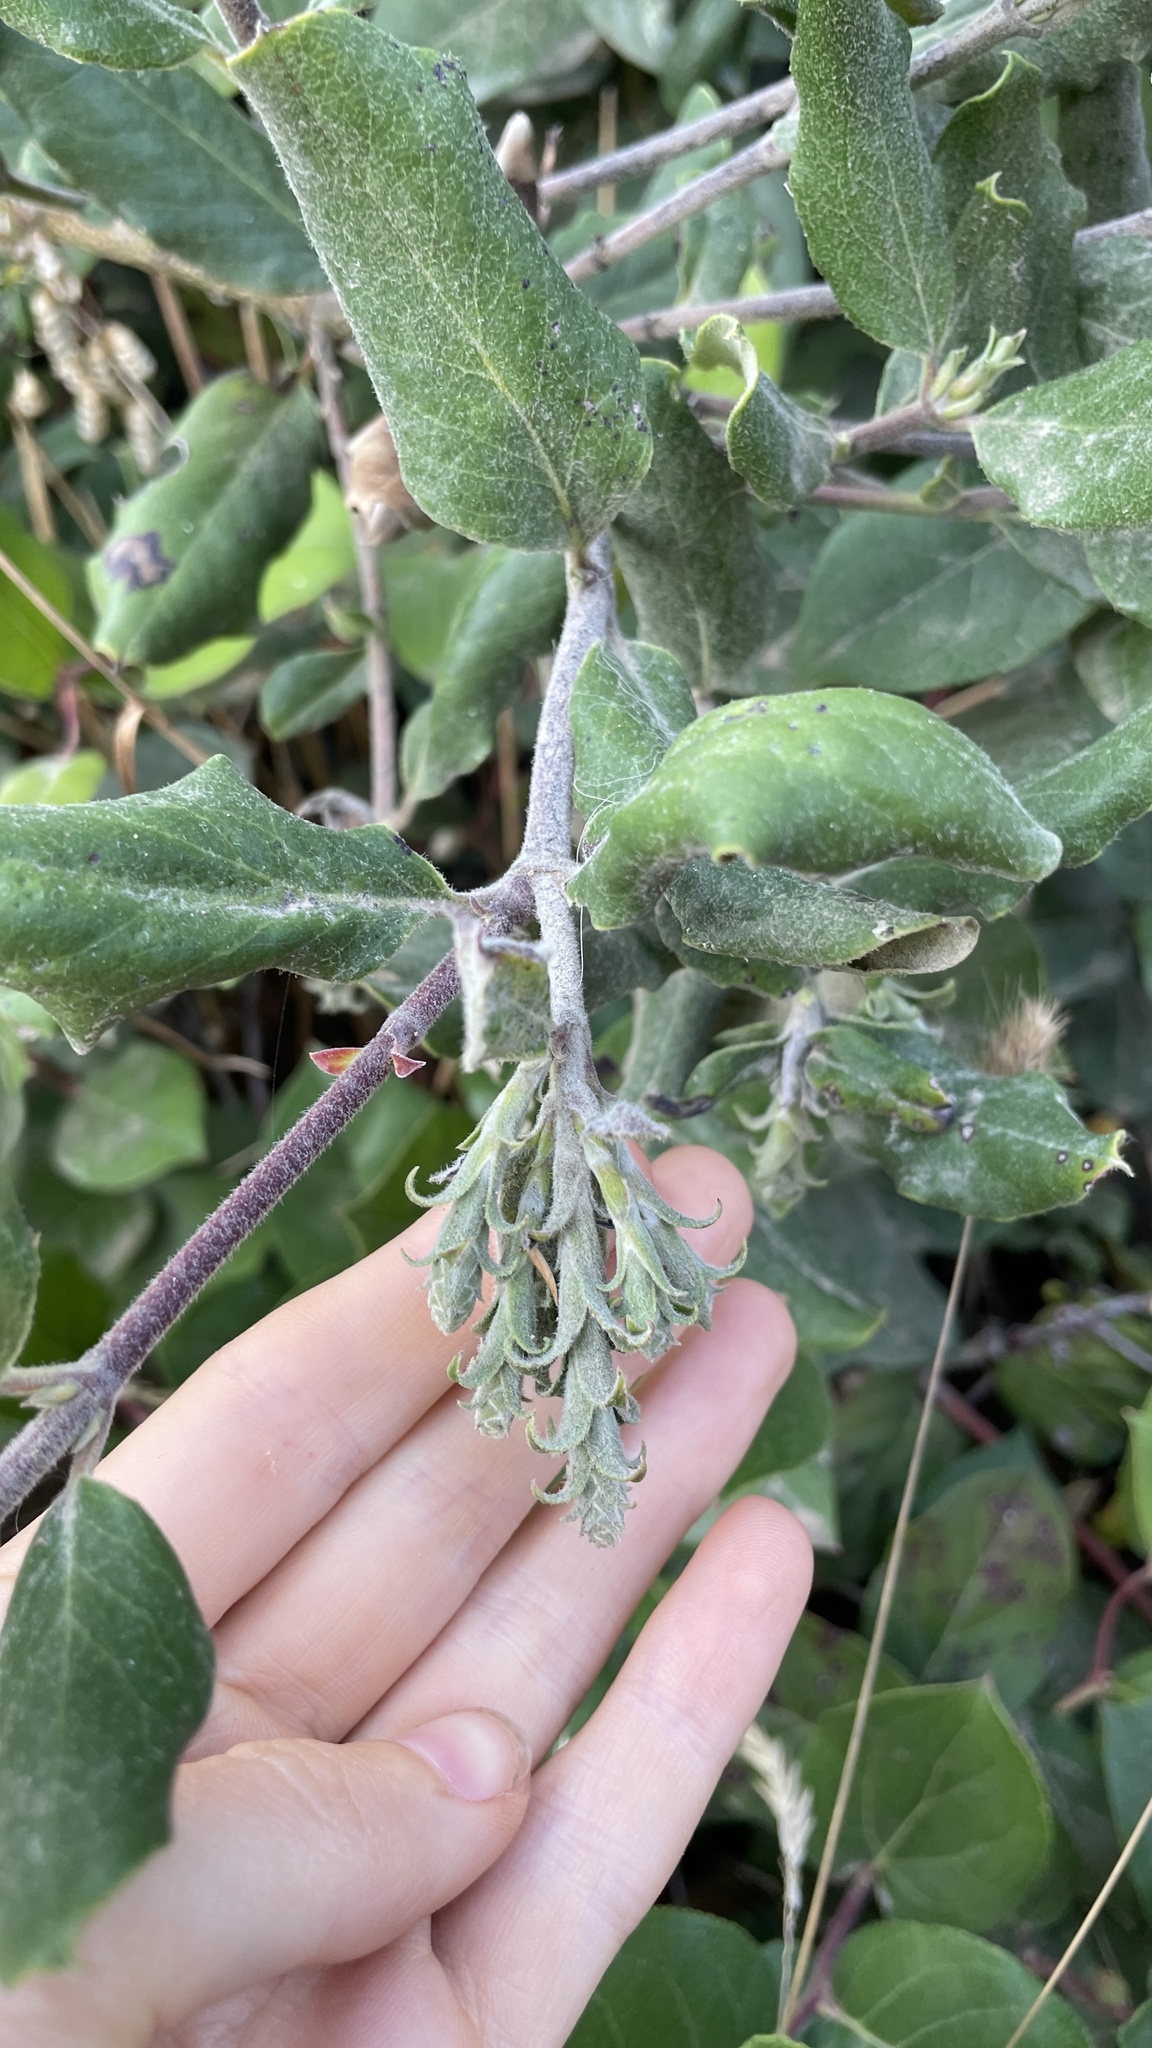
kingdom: Plantae
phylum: Tracheophyta
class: Magnoliopsida
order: Garryales
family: Garryaceae
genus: Garrya
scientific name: Garrya elliptica
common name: Silk-tassel
